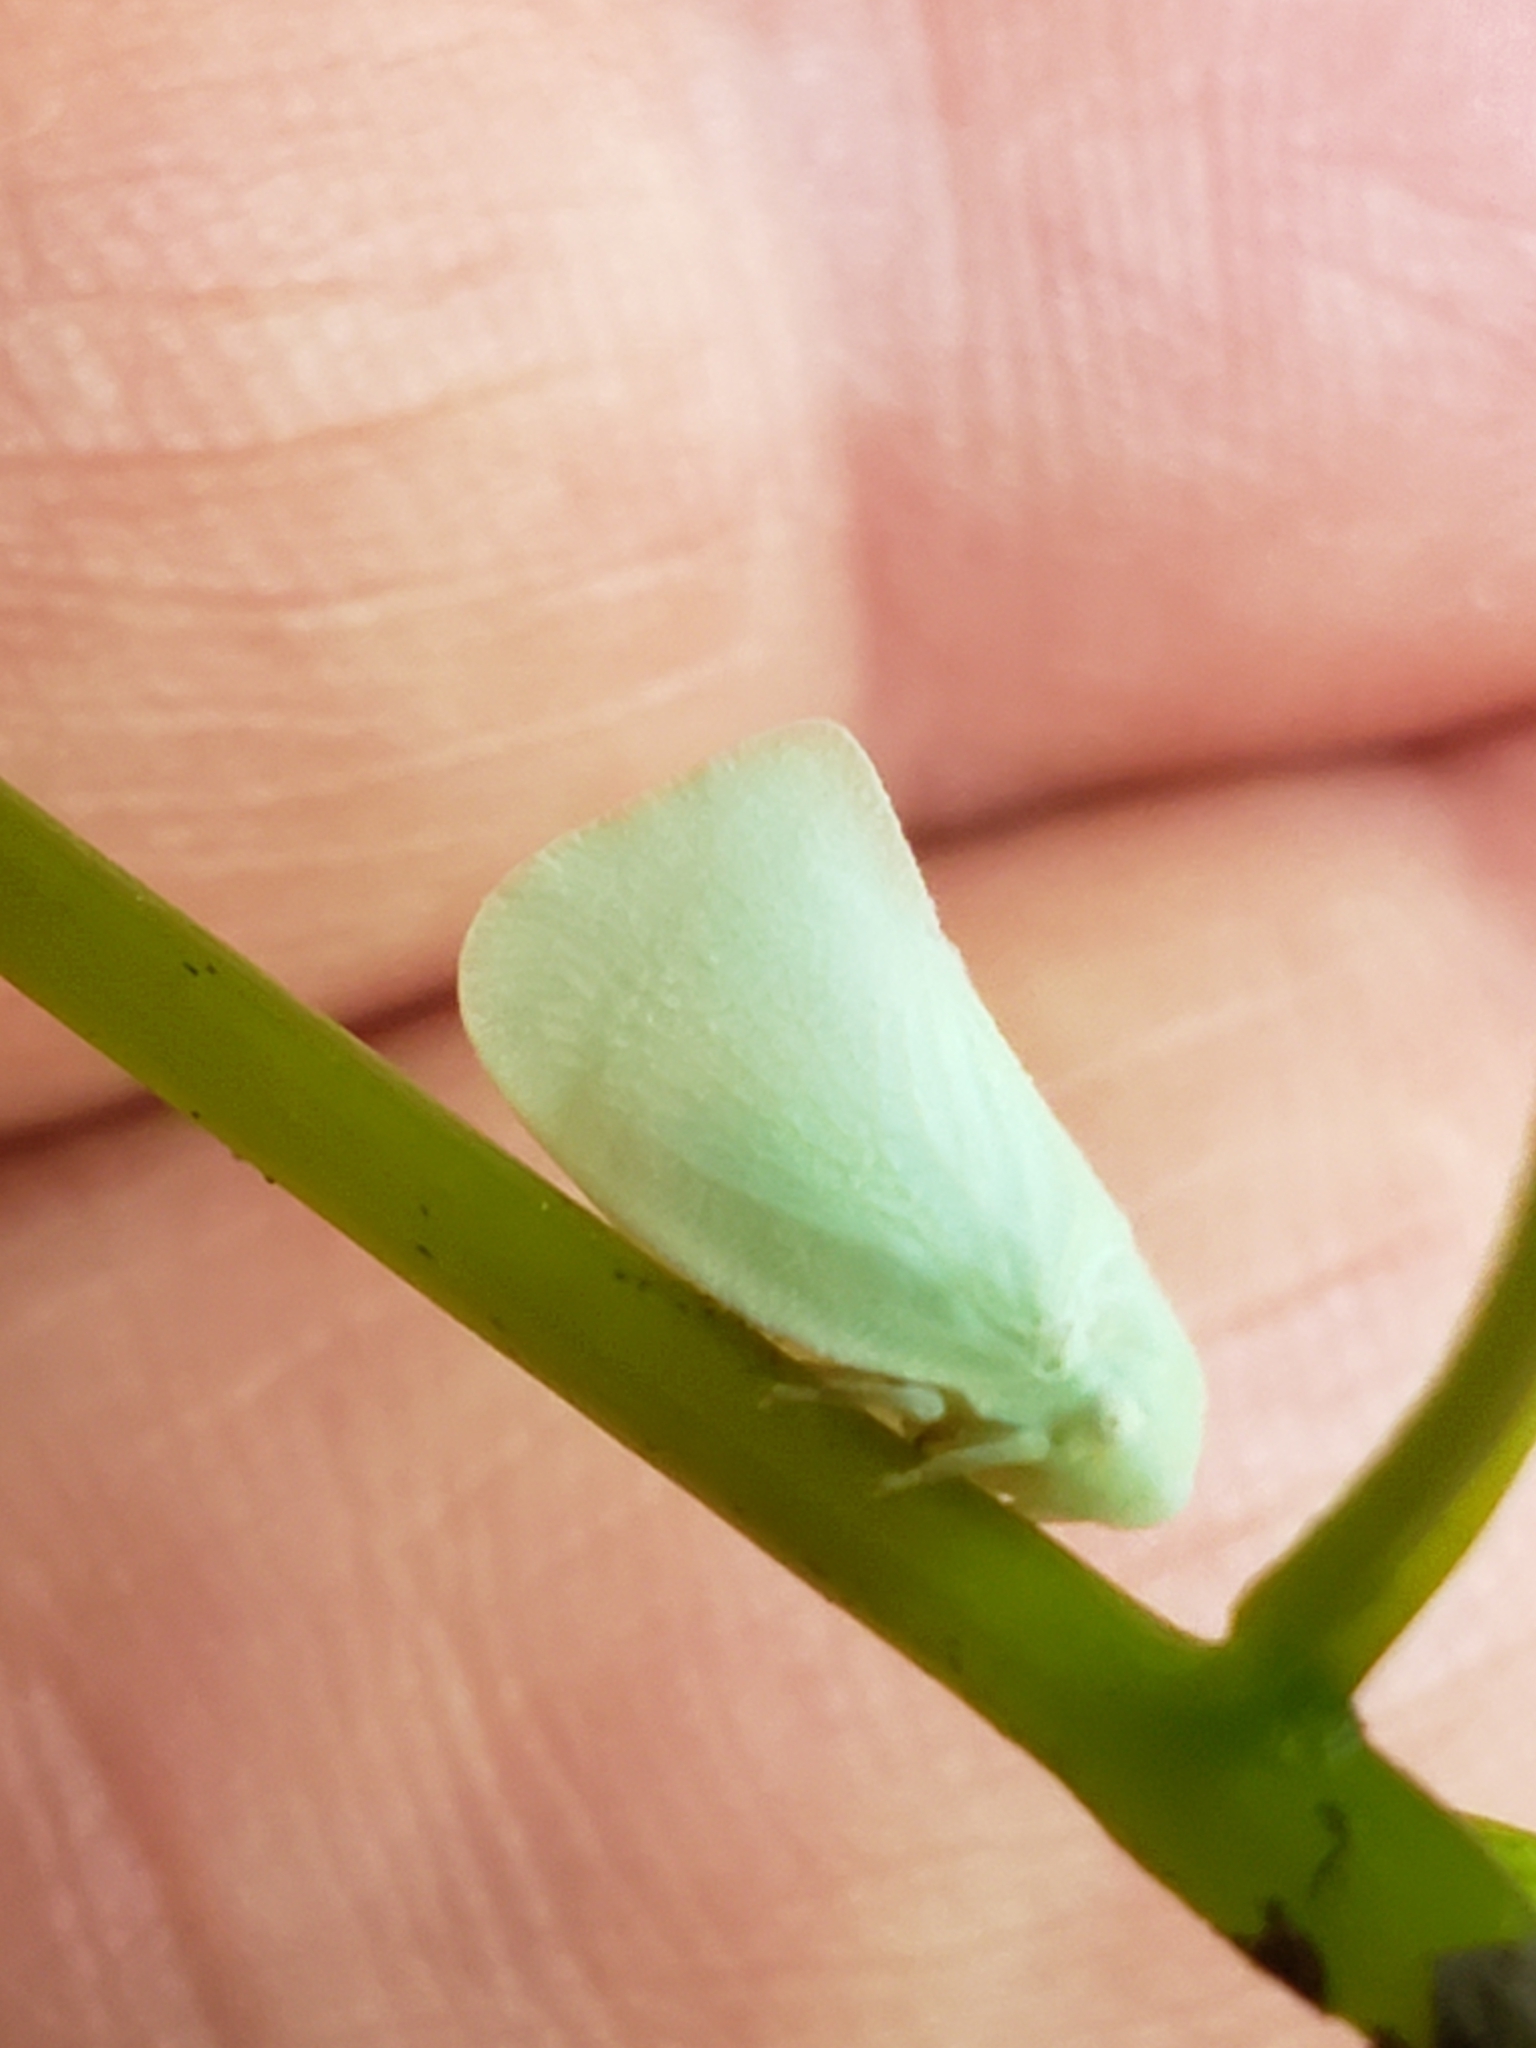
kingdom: Animalia
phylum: Arthropoda
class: Insecta
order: Hemiptera
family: Flatidae
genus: Flatormenis
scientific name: Flatormenis proxima
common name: Northern flatid planthopper
